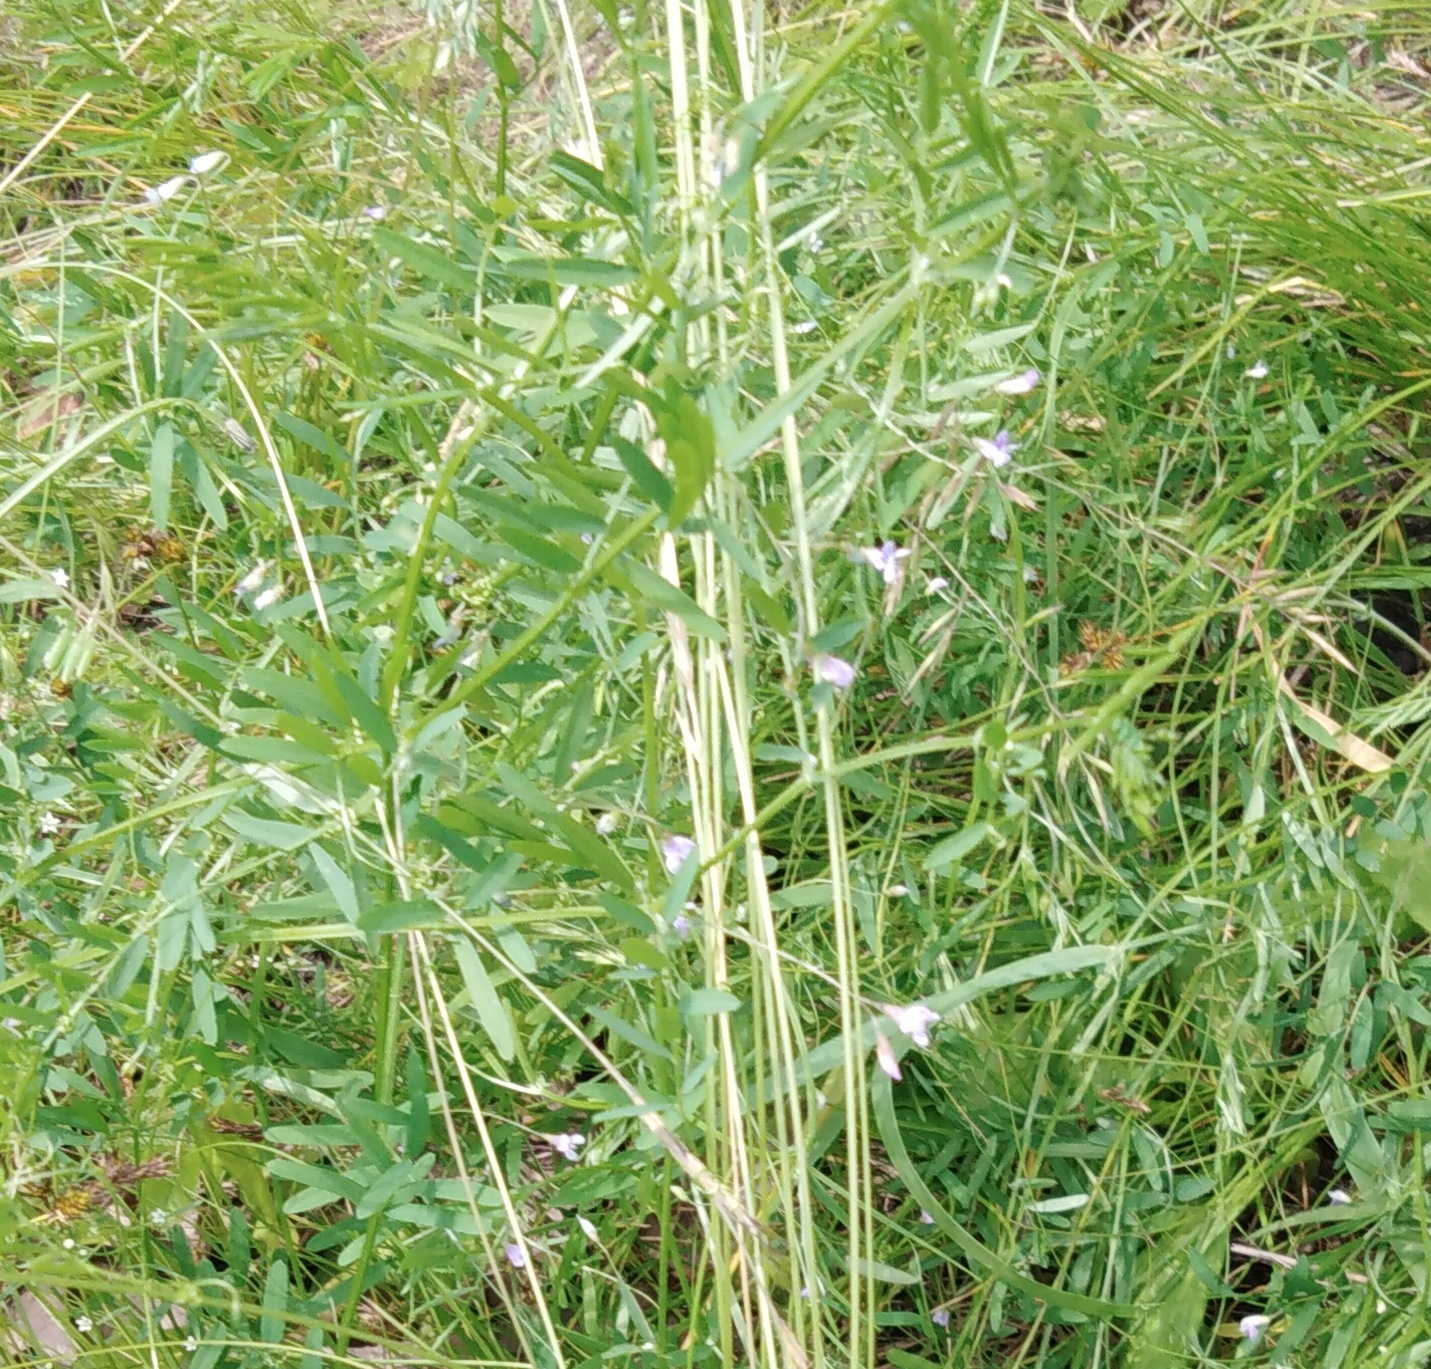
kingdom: Plantae
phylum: Tracheophyta
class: Magnoliopsida
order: Fabales
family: Fabaceae
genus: Vicia
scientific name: Vicia tetrasperma
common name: Smooth tare
